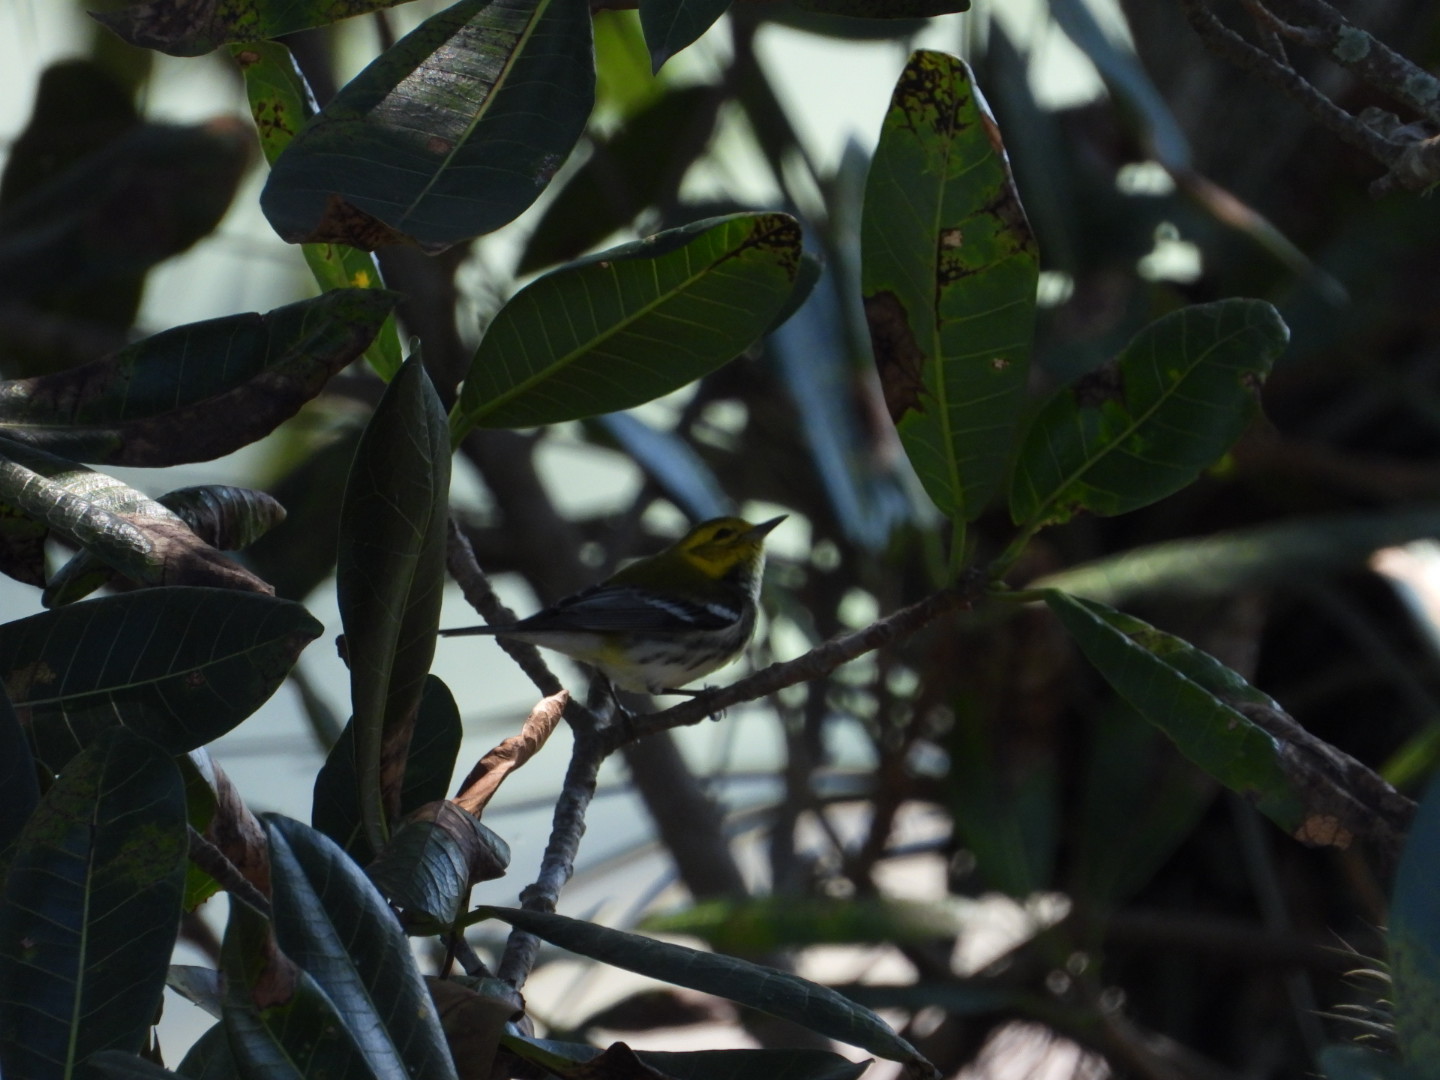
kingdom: Animalia
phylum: Chordata
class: Aves
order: Passeriformes
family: Parulidae
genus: Setophaga
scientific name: Setophaga virens
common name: Black-throated green warbler
